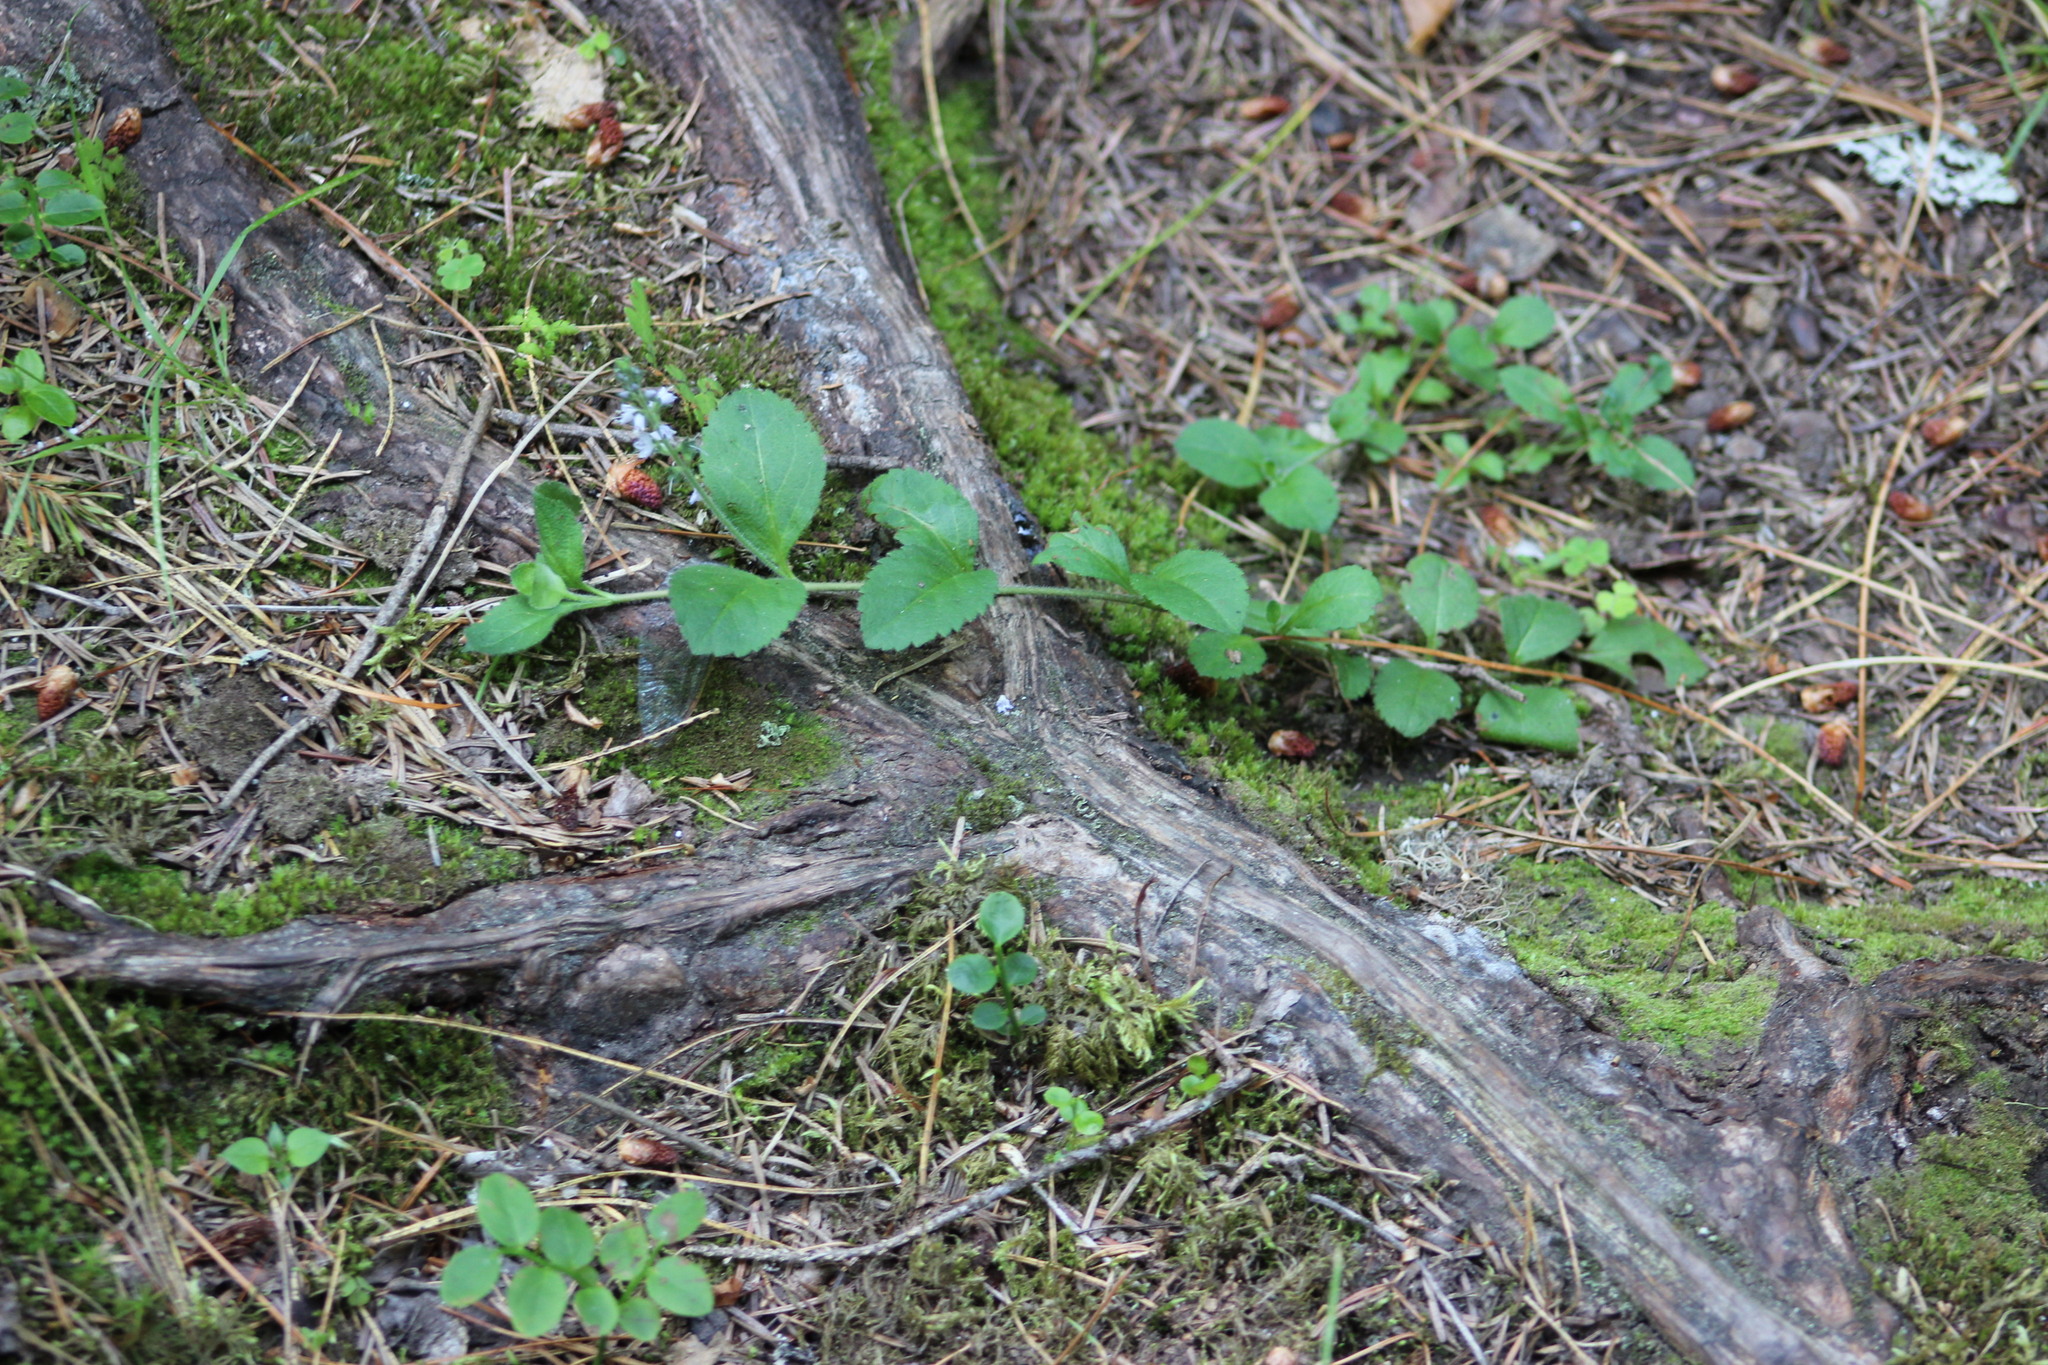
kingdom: Plantae
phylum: Tracheophyta
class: Magnoliopsida
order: Lamiales
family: Plantaginaceae
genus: Veronica
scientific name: Veronica officinalis
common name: Common speedwell
